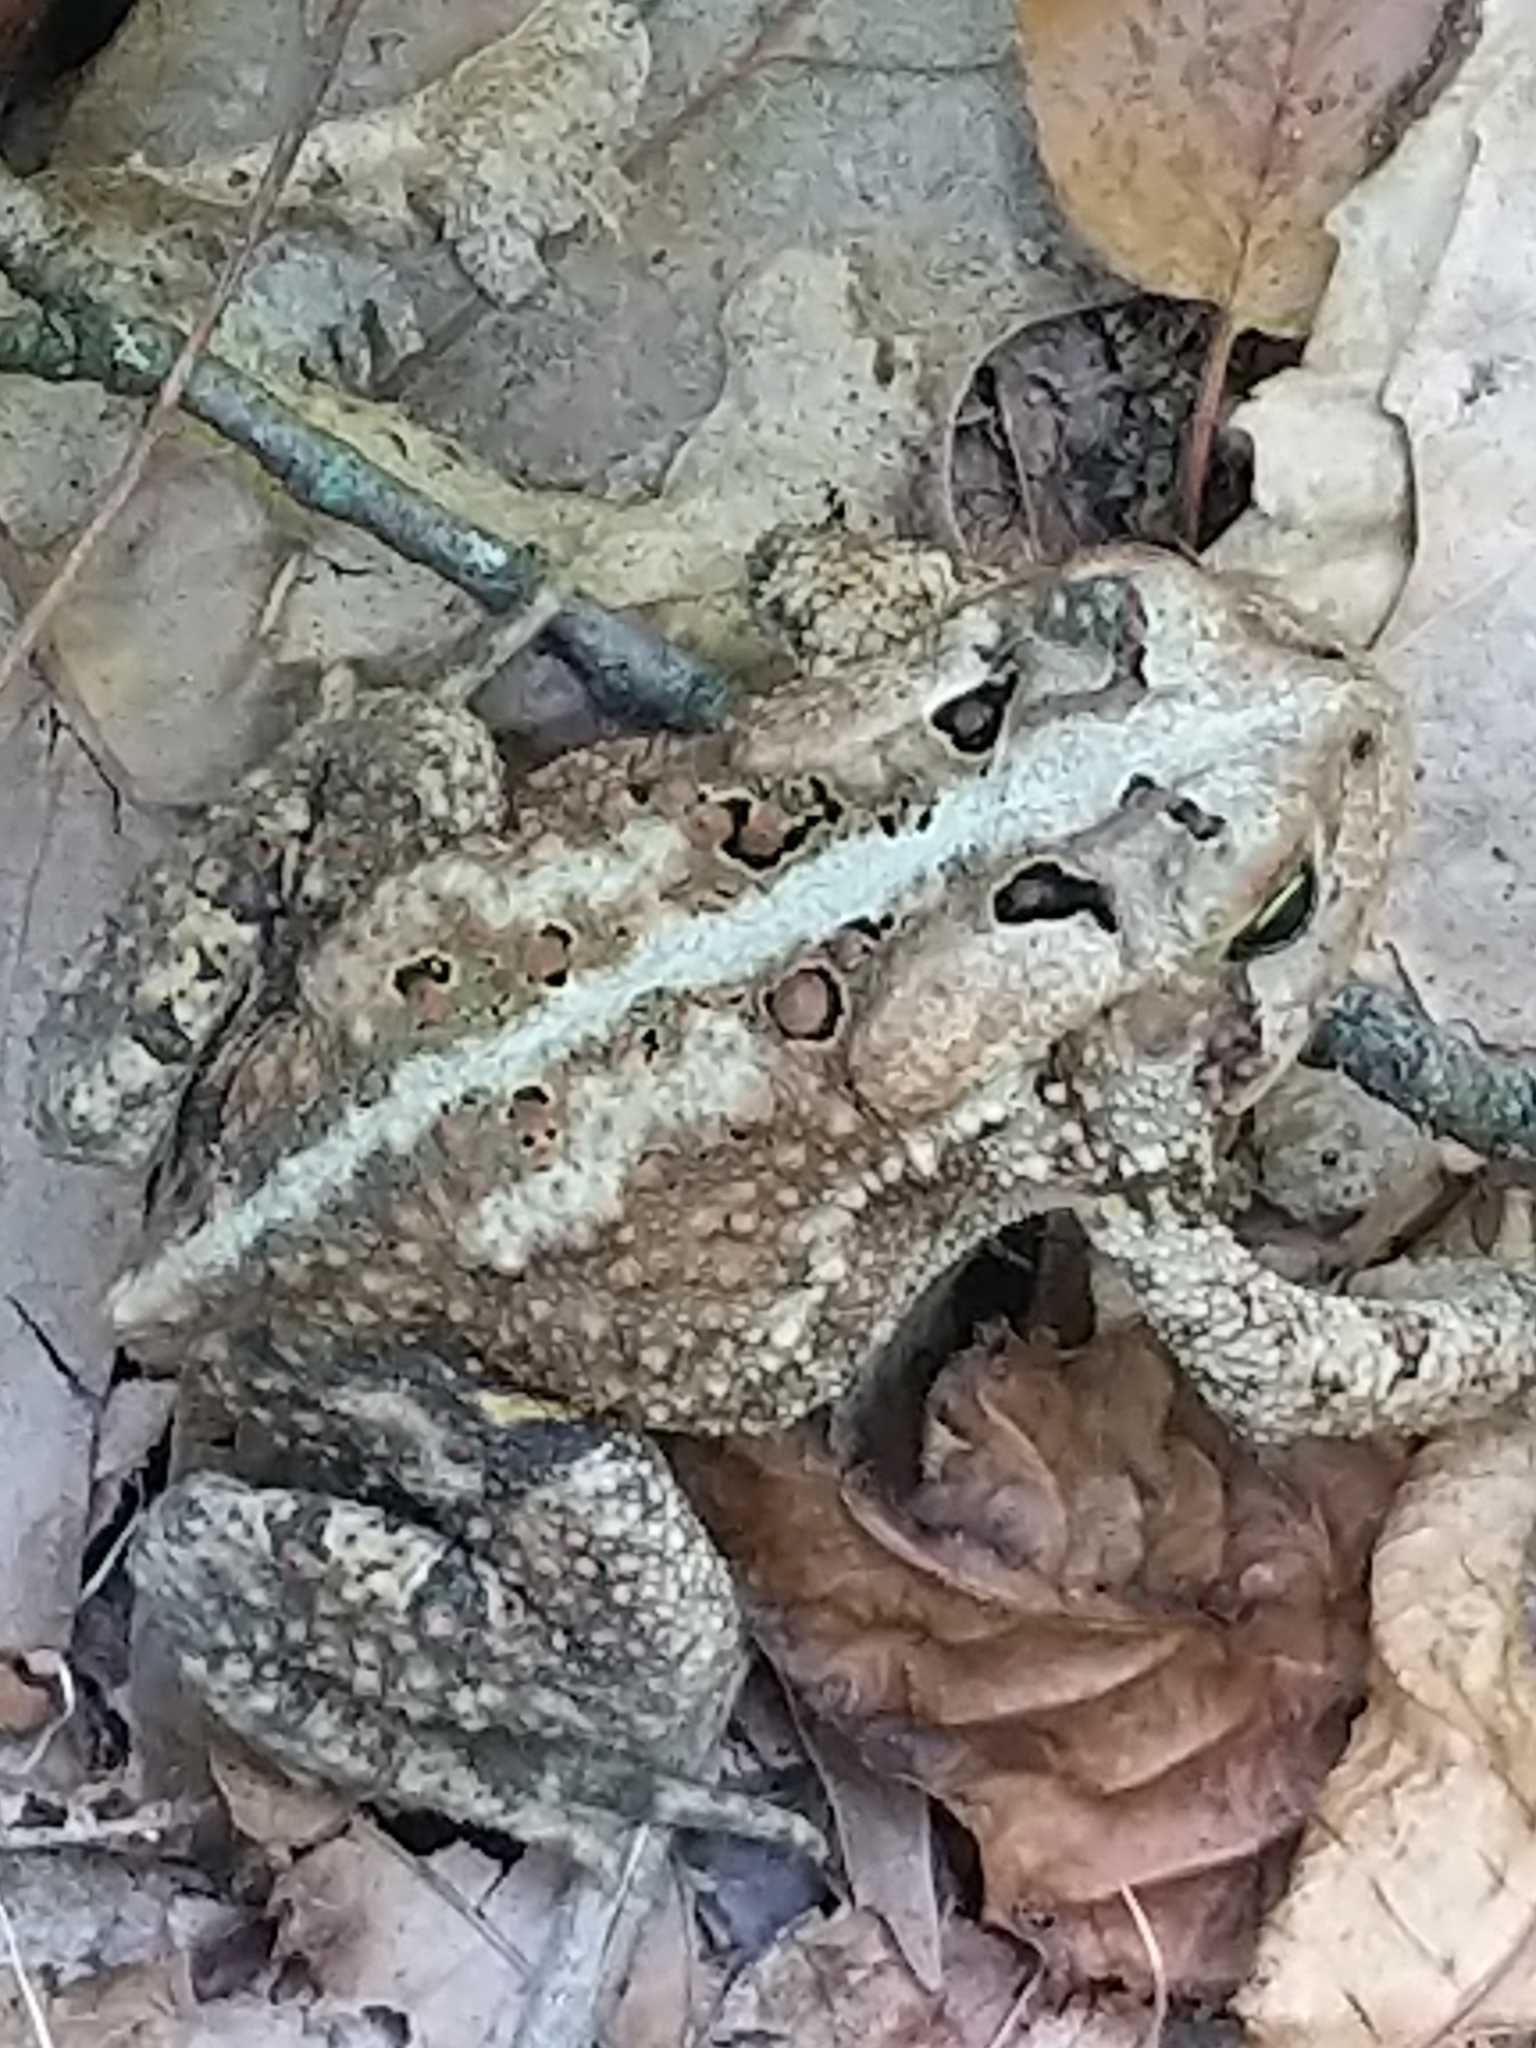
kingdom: Animalia
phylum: Chordata
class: Amphibia
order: Anura
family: Bufonidae
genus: Anaxyrus
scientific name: Anaxyrus americanus
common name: American toad
